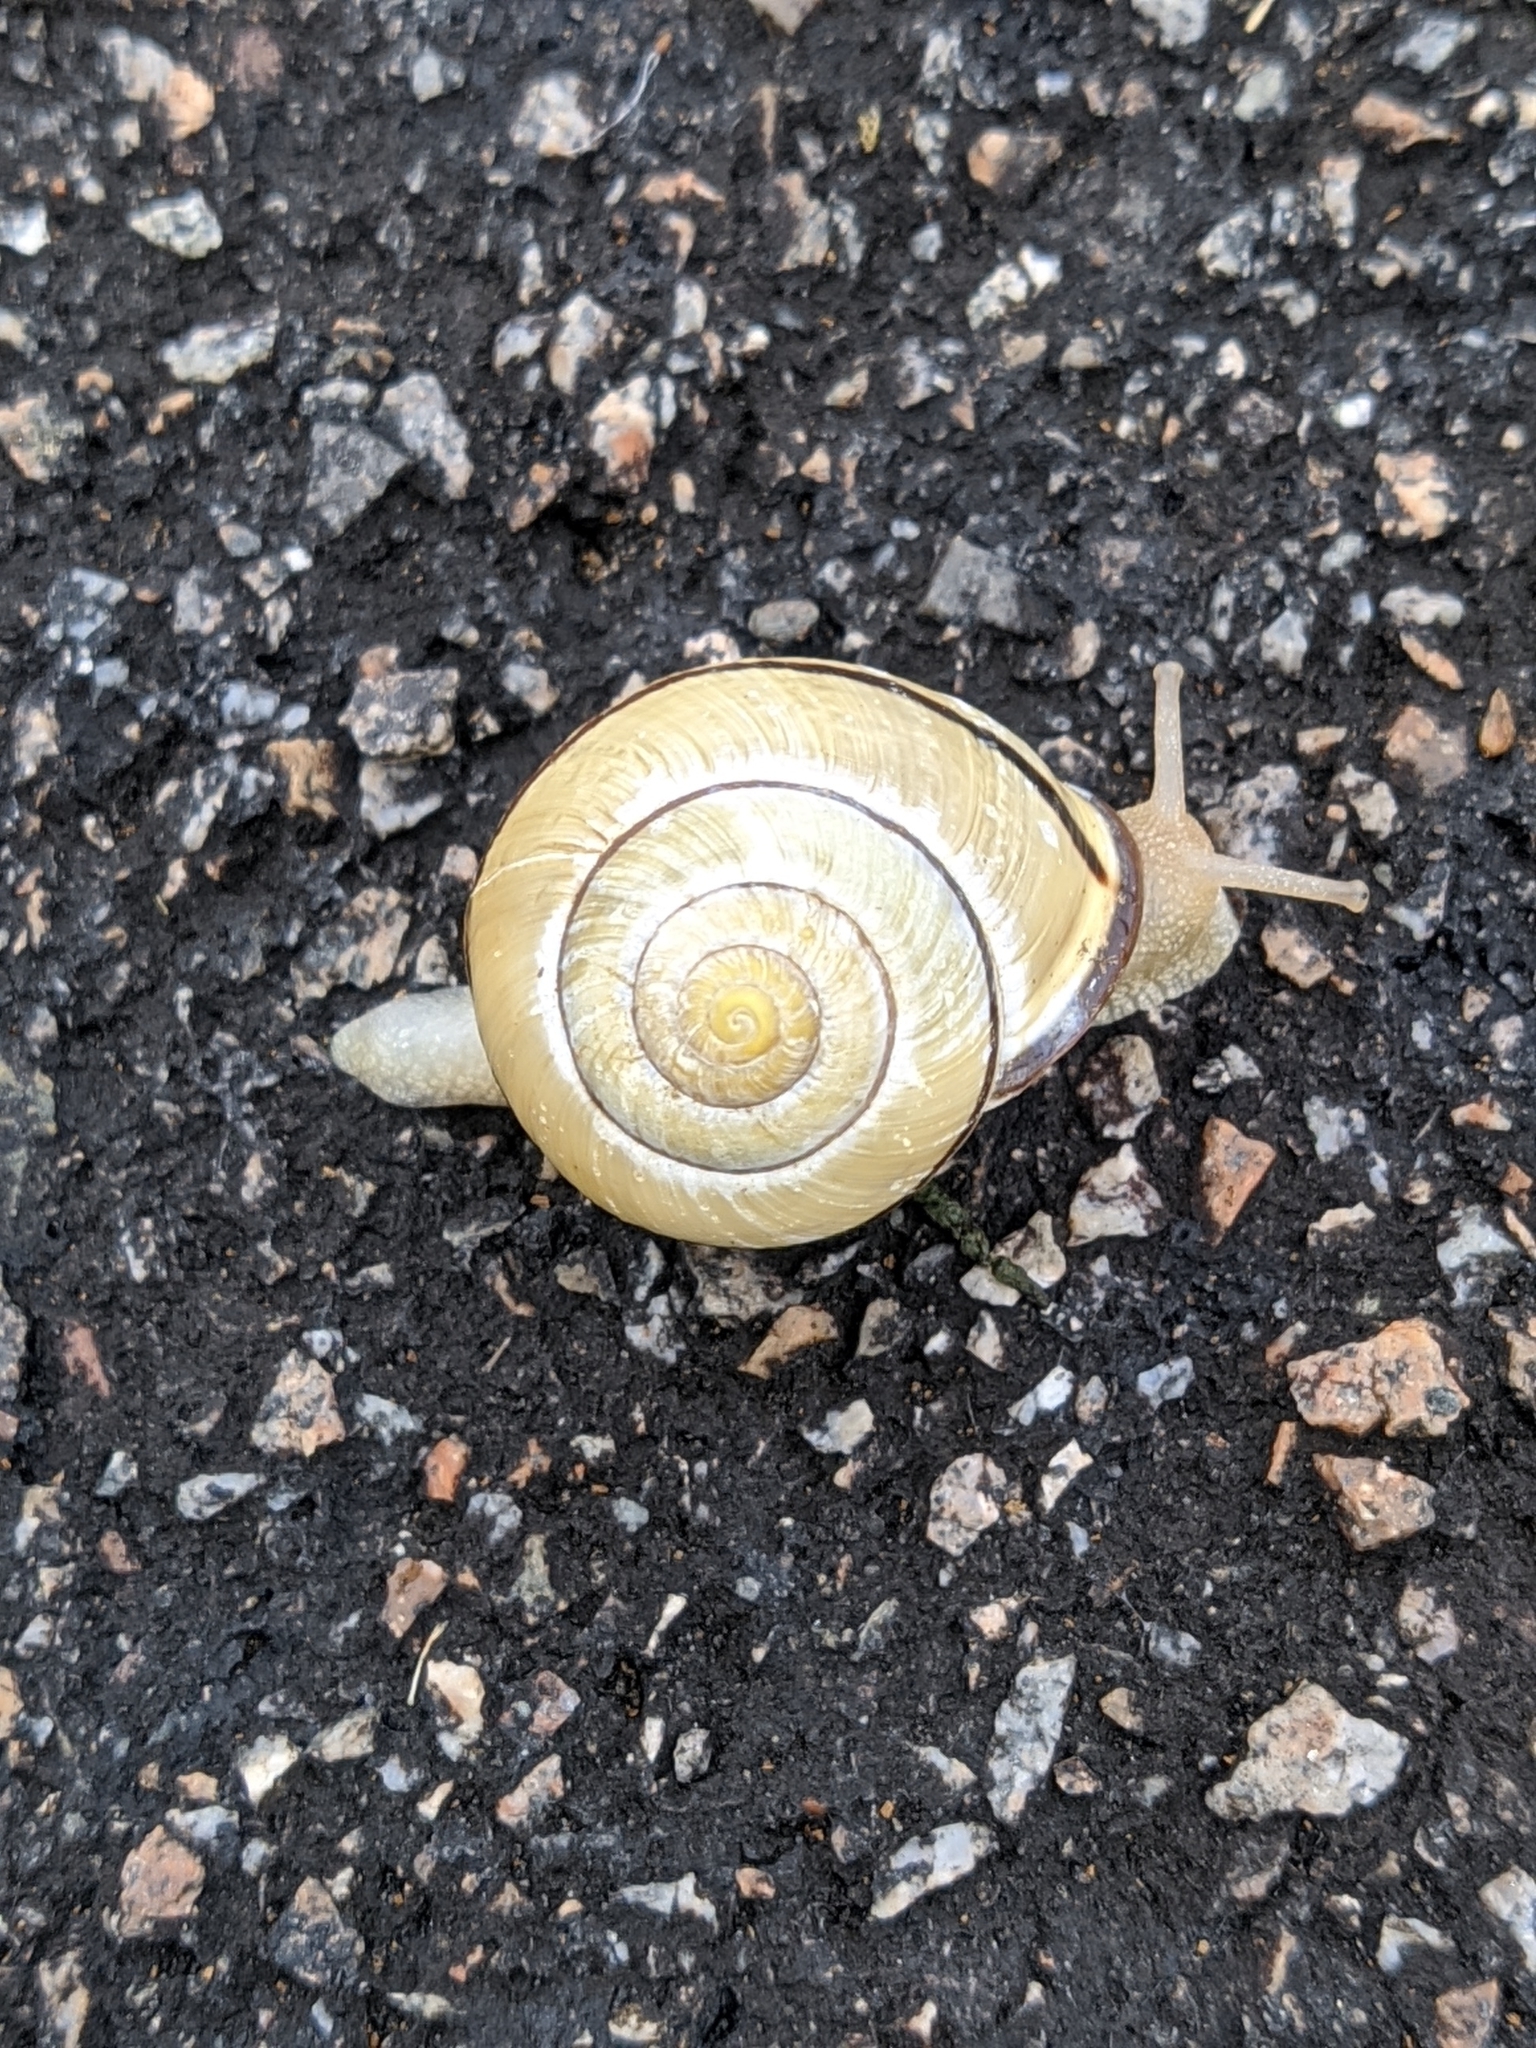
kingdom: Animalia
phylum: Mollusca
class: Gastropoda
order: Stylommatophora
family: Helicidae
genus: Cepaea
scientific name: Cepaea nemoralis
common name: Grovesnail
